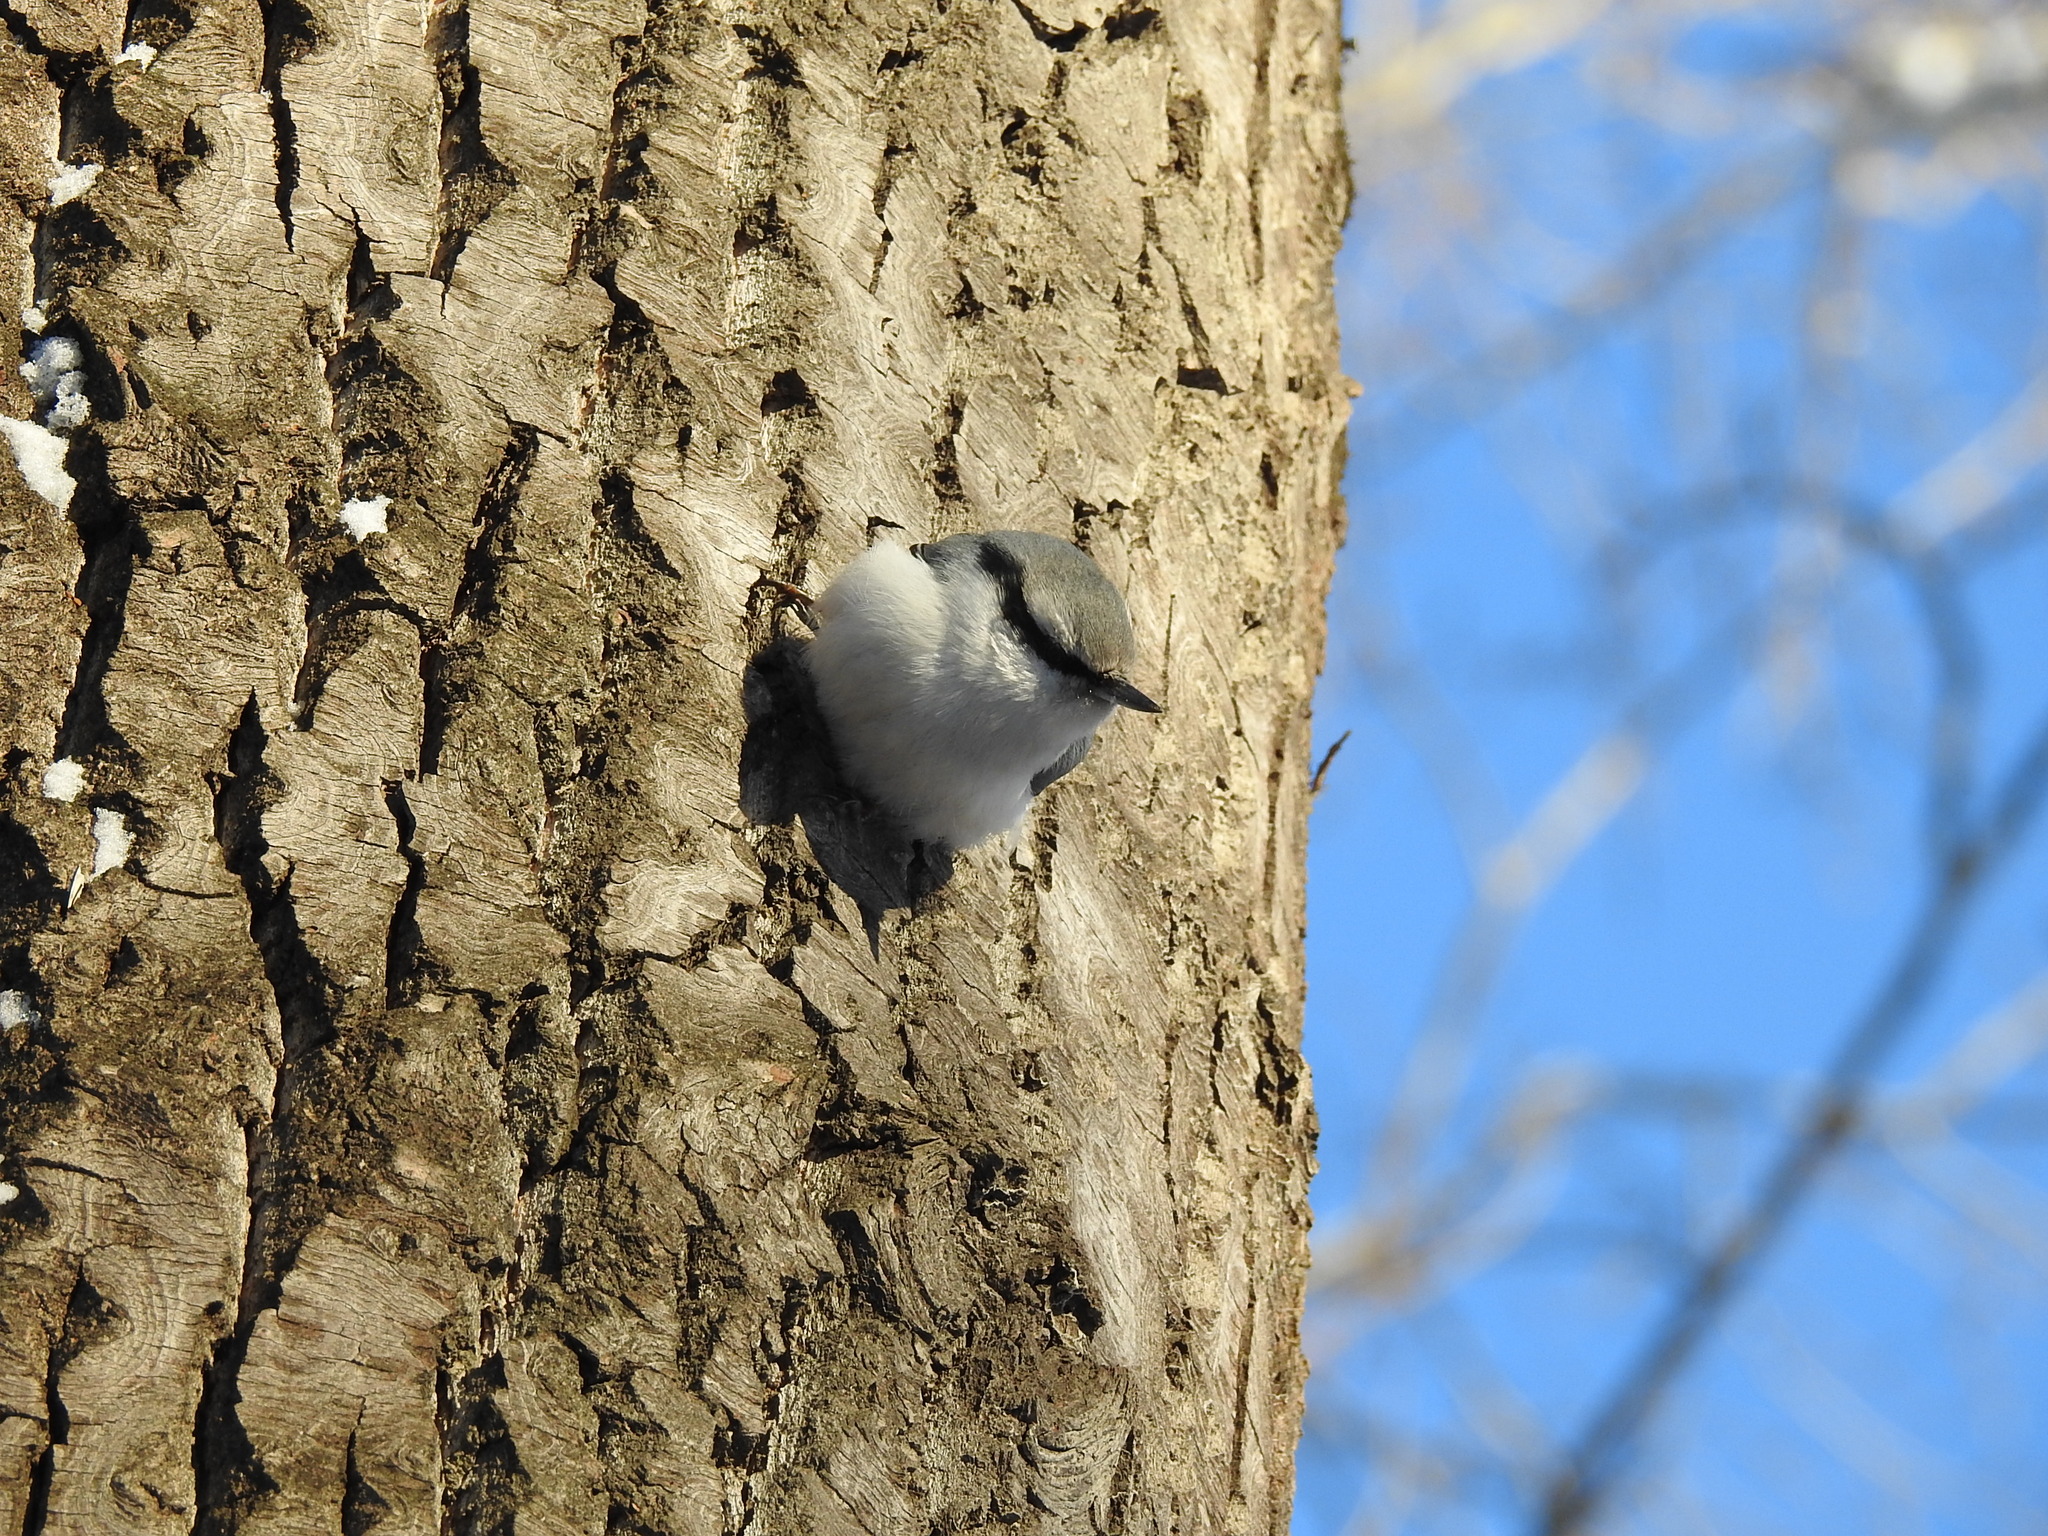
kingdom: Animalia
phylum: Chordata
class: Aves
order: Passeriformes
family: Sittidae
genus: Sitta
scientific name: Sitta europaea
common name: Eurasian nuthatch
